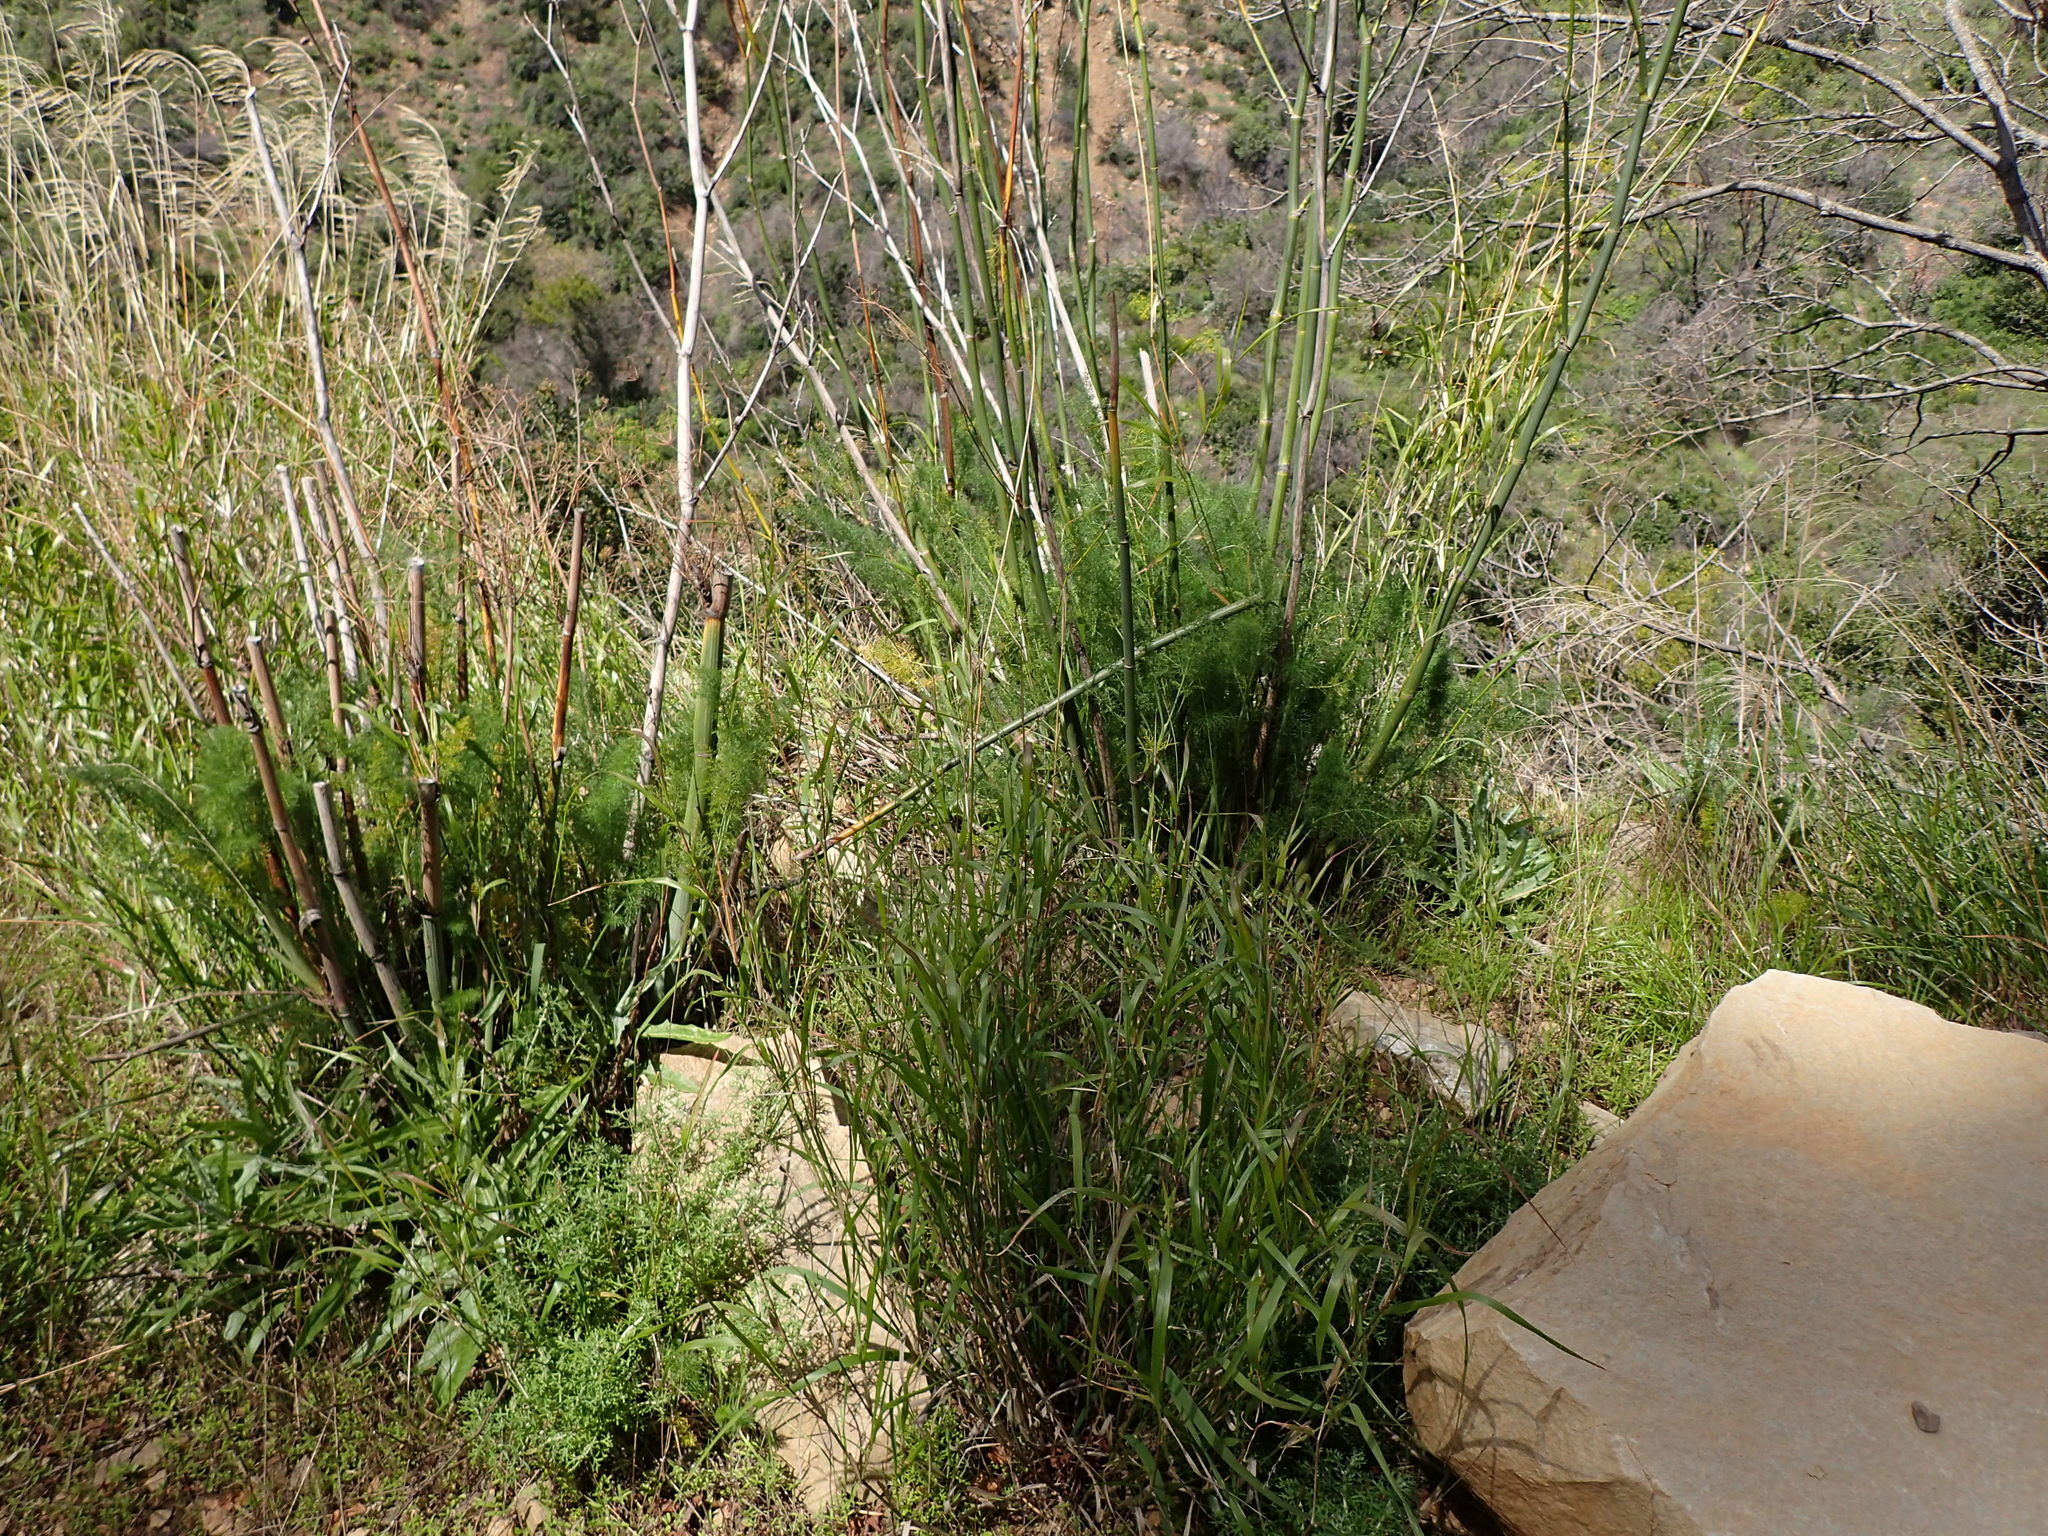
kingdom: Plantae
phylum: Tracheophyta
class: Magnoliopsida
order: Apiales
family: Apiaceae
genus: Foeniculum
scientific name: Foeniculum vulgare
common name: Fennel
